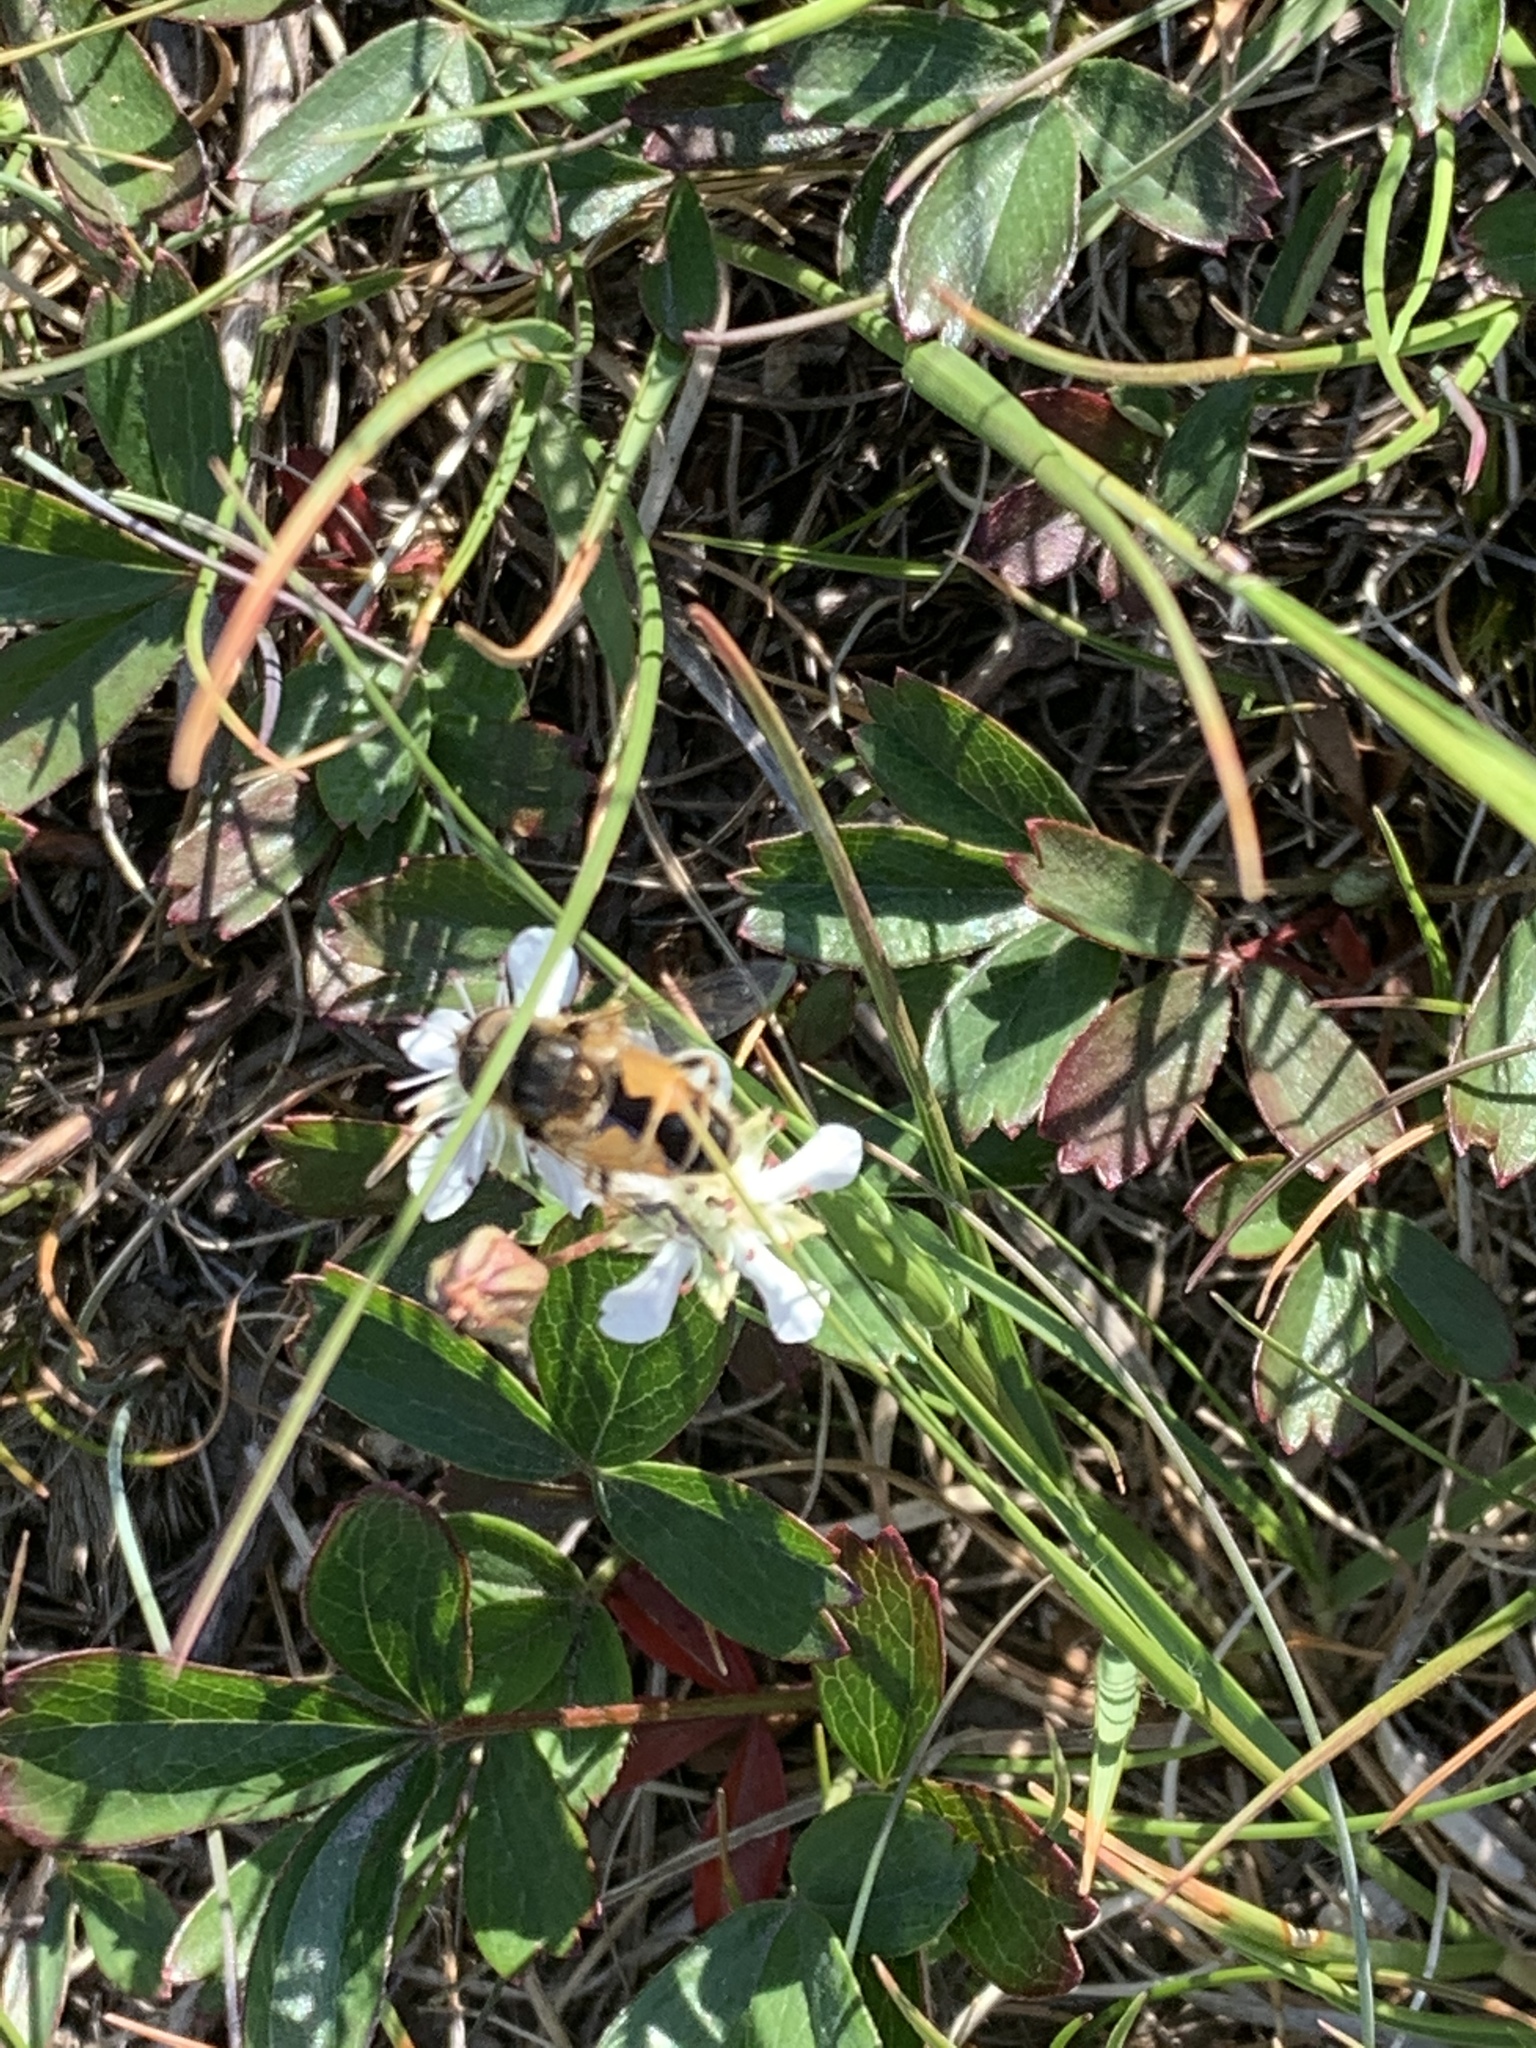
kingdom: Animalia
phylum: Arthropoda
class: Insecta
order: Diptera
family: Syrphidae
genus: Eristalis
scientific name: Eristalis arbustorum
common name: Hover fly
